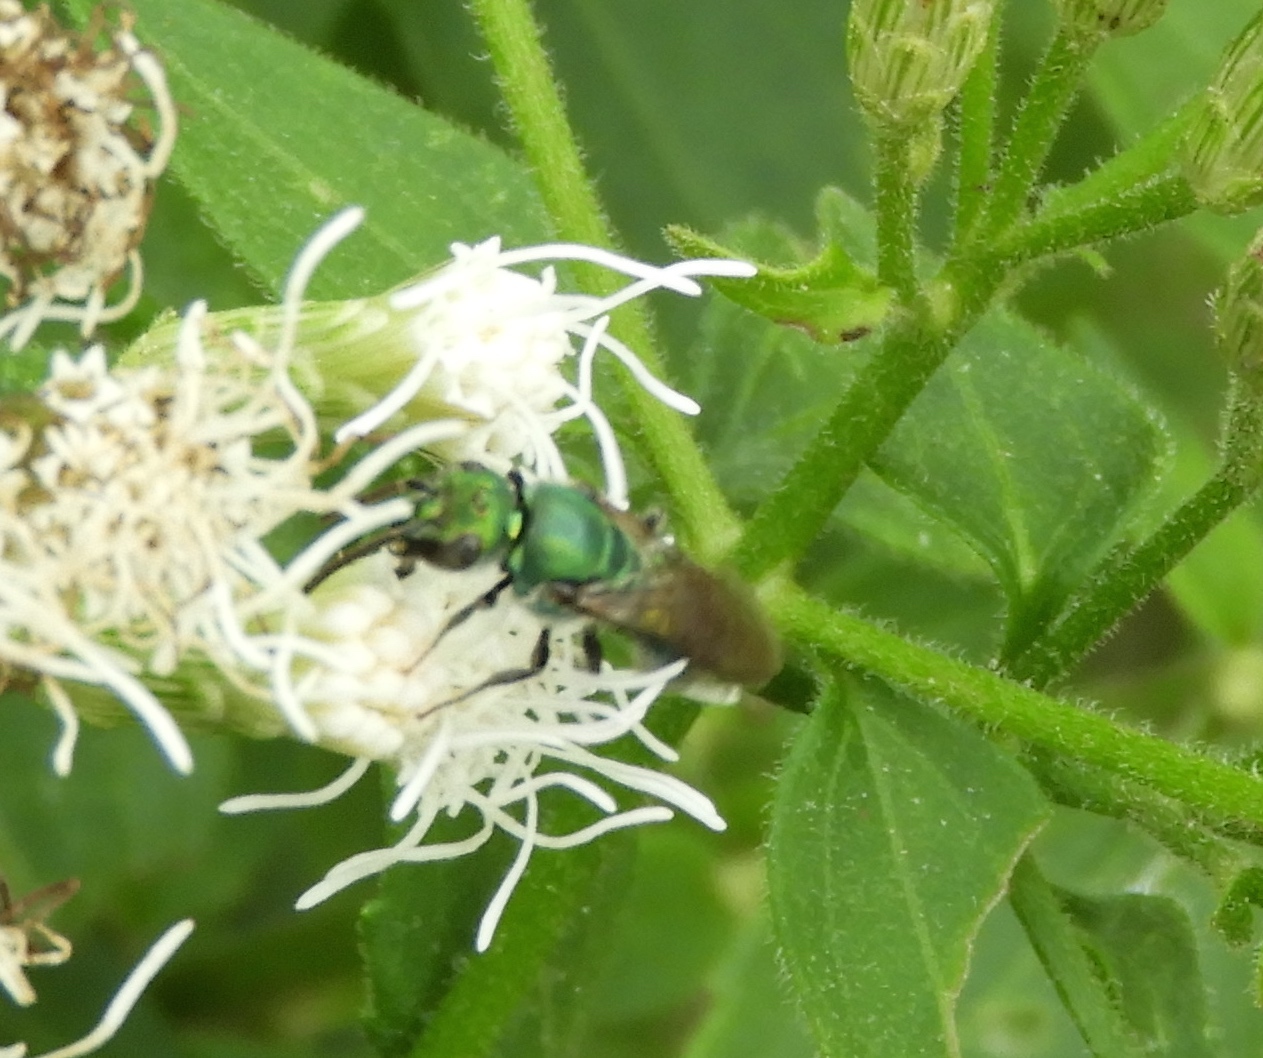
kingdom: Animalia
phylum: Arthropoda
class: Insecta
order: Hymenoptera
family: Halictidae
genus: Augochlora
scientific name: Augochlora
